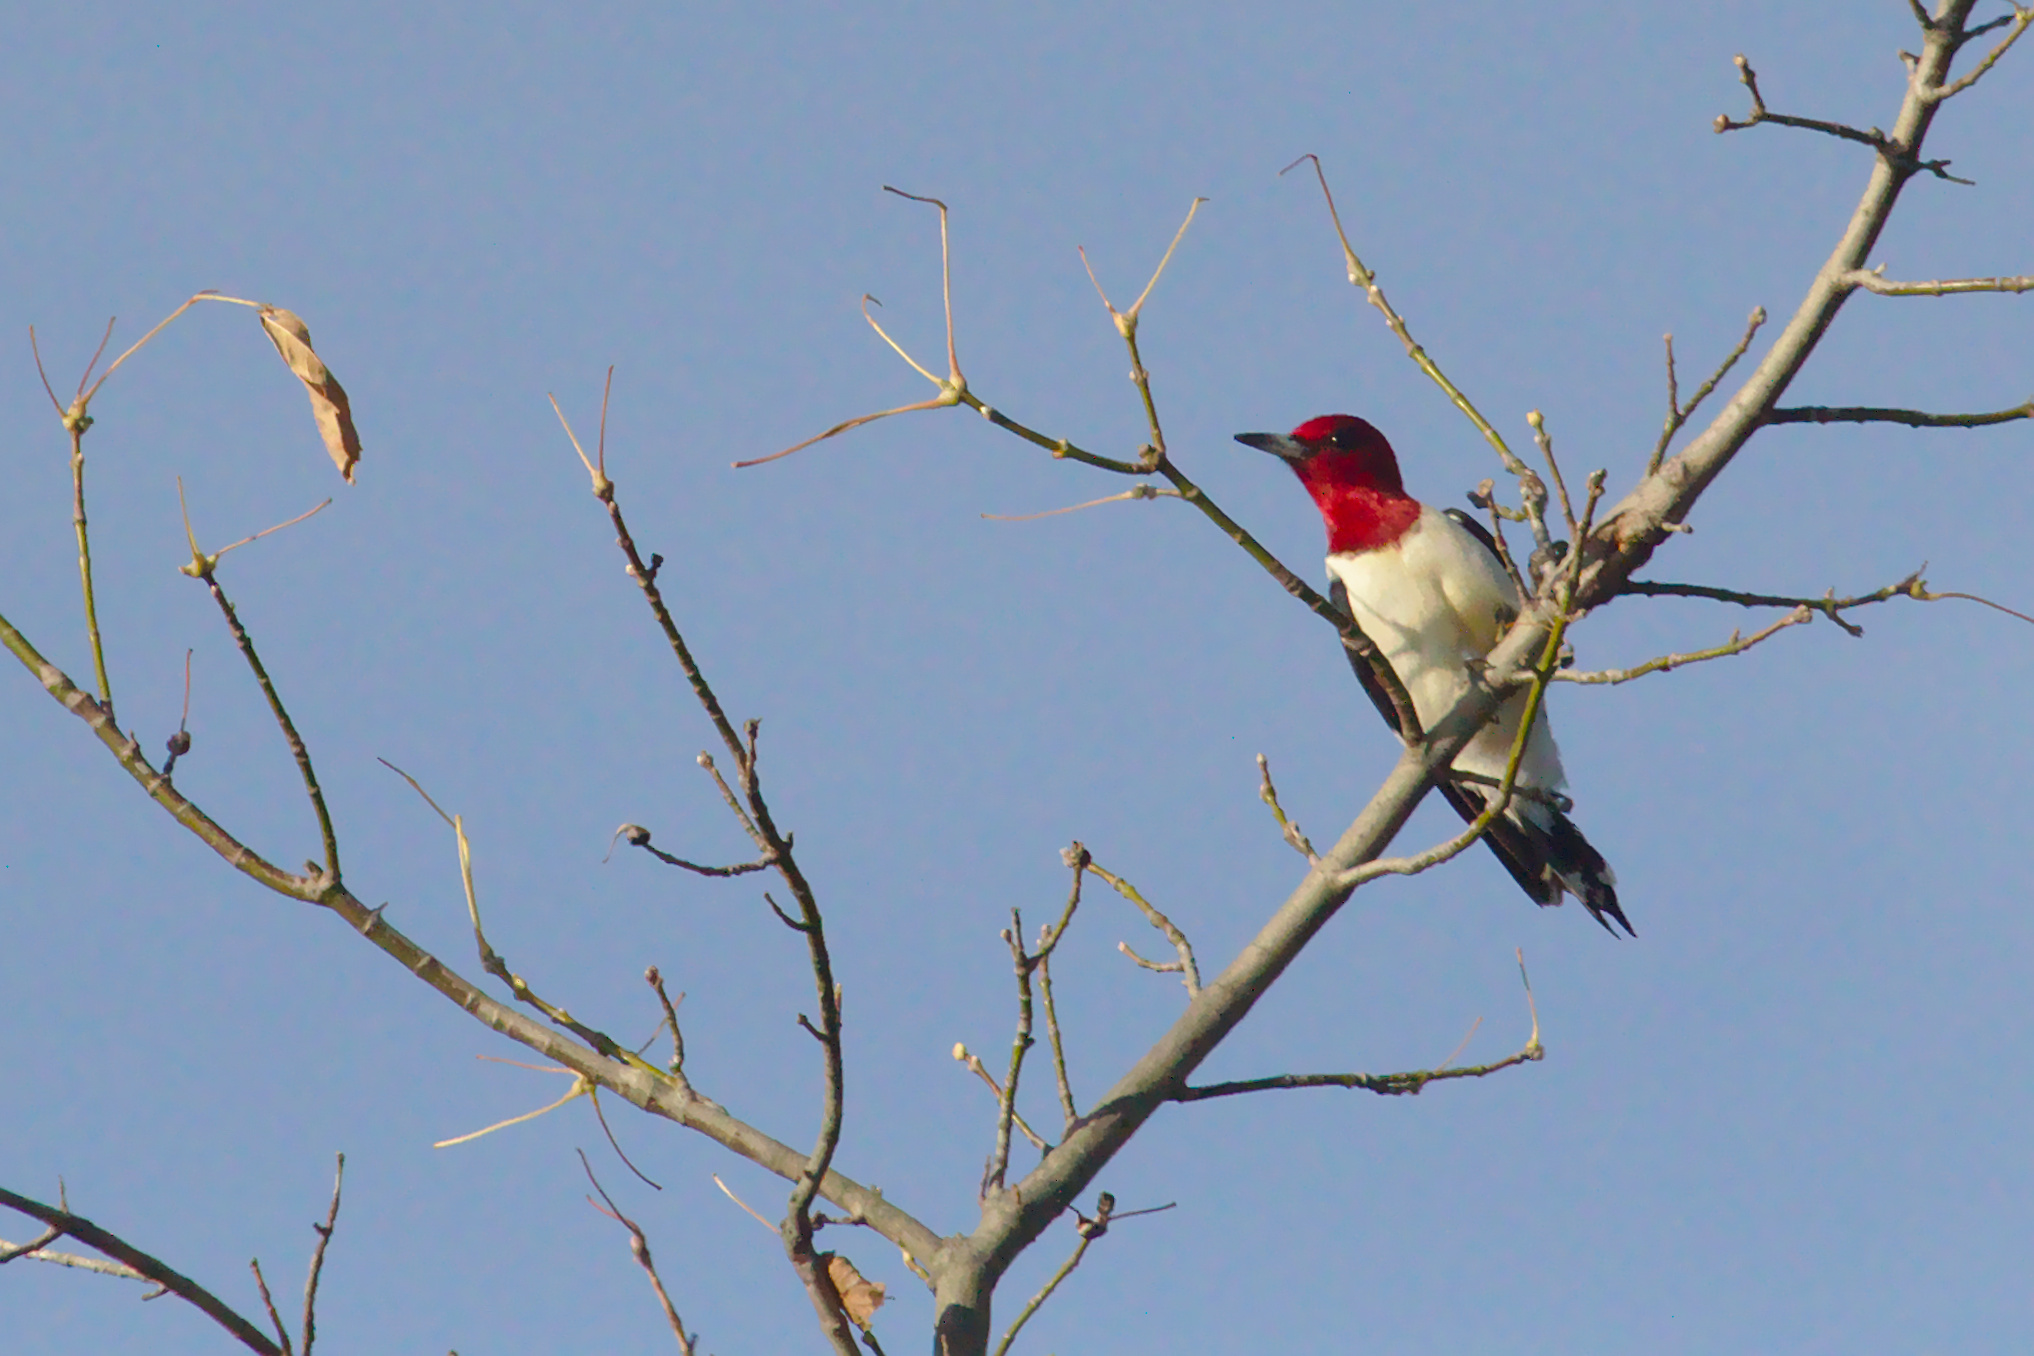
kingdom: Animalia
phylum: Chordata
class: Aves
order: Piciformes
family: Picidae
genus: Melanerpes
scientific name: Melanerpes erythrocephalus
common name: Red-headed woodpecker
